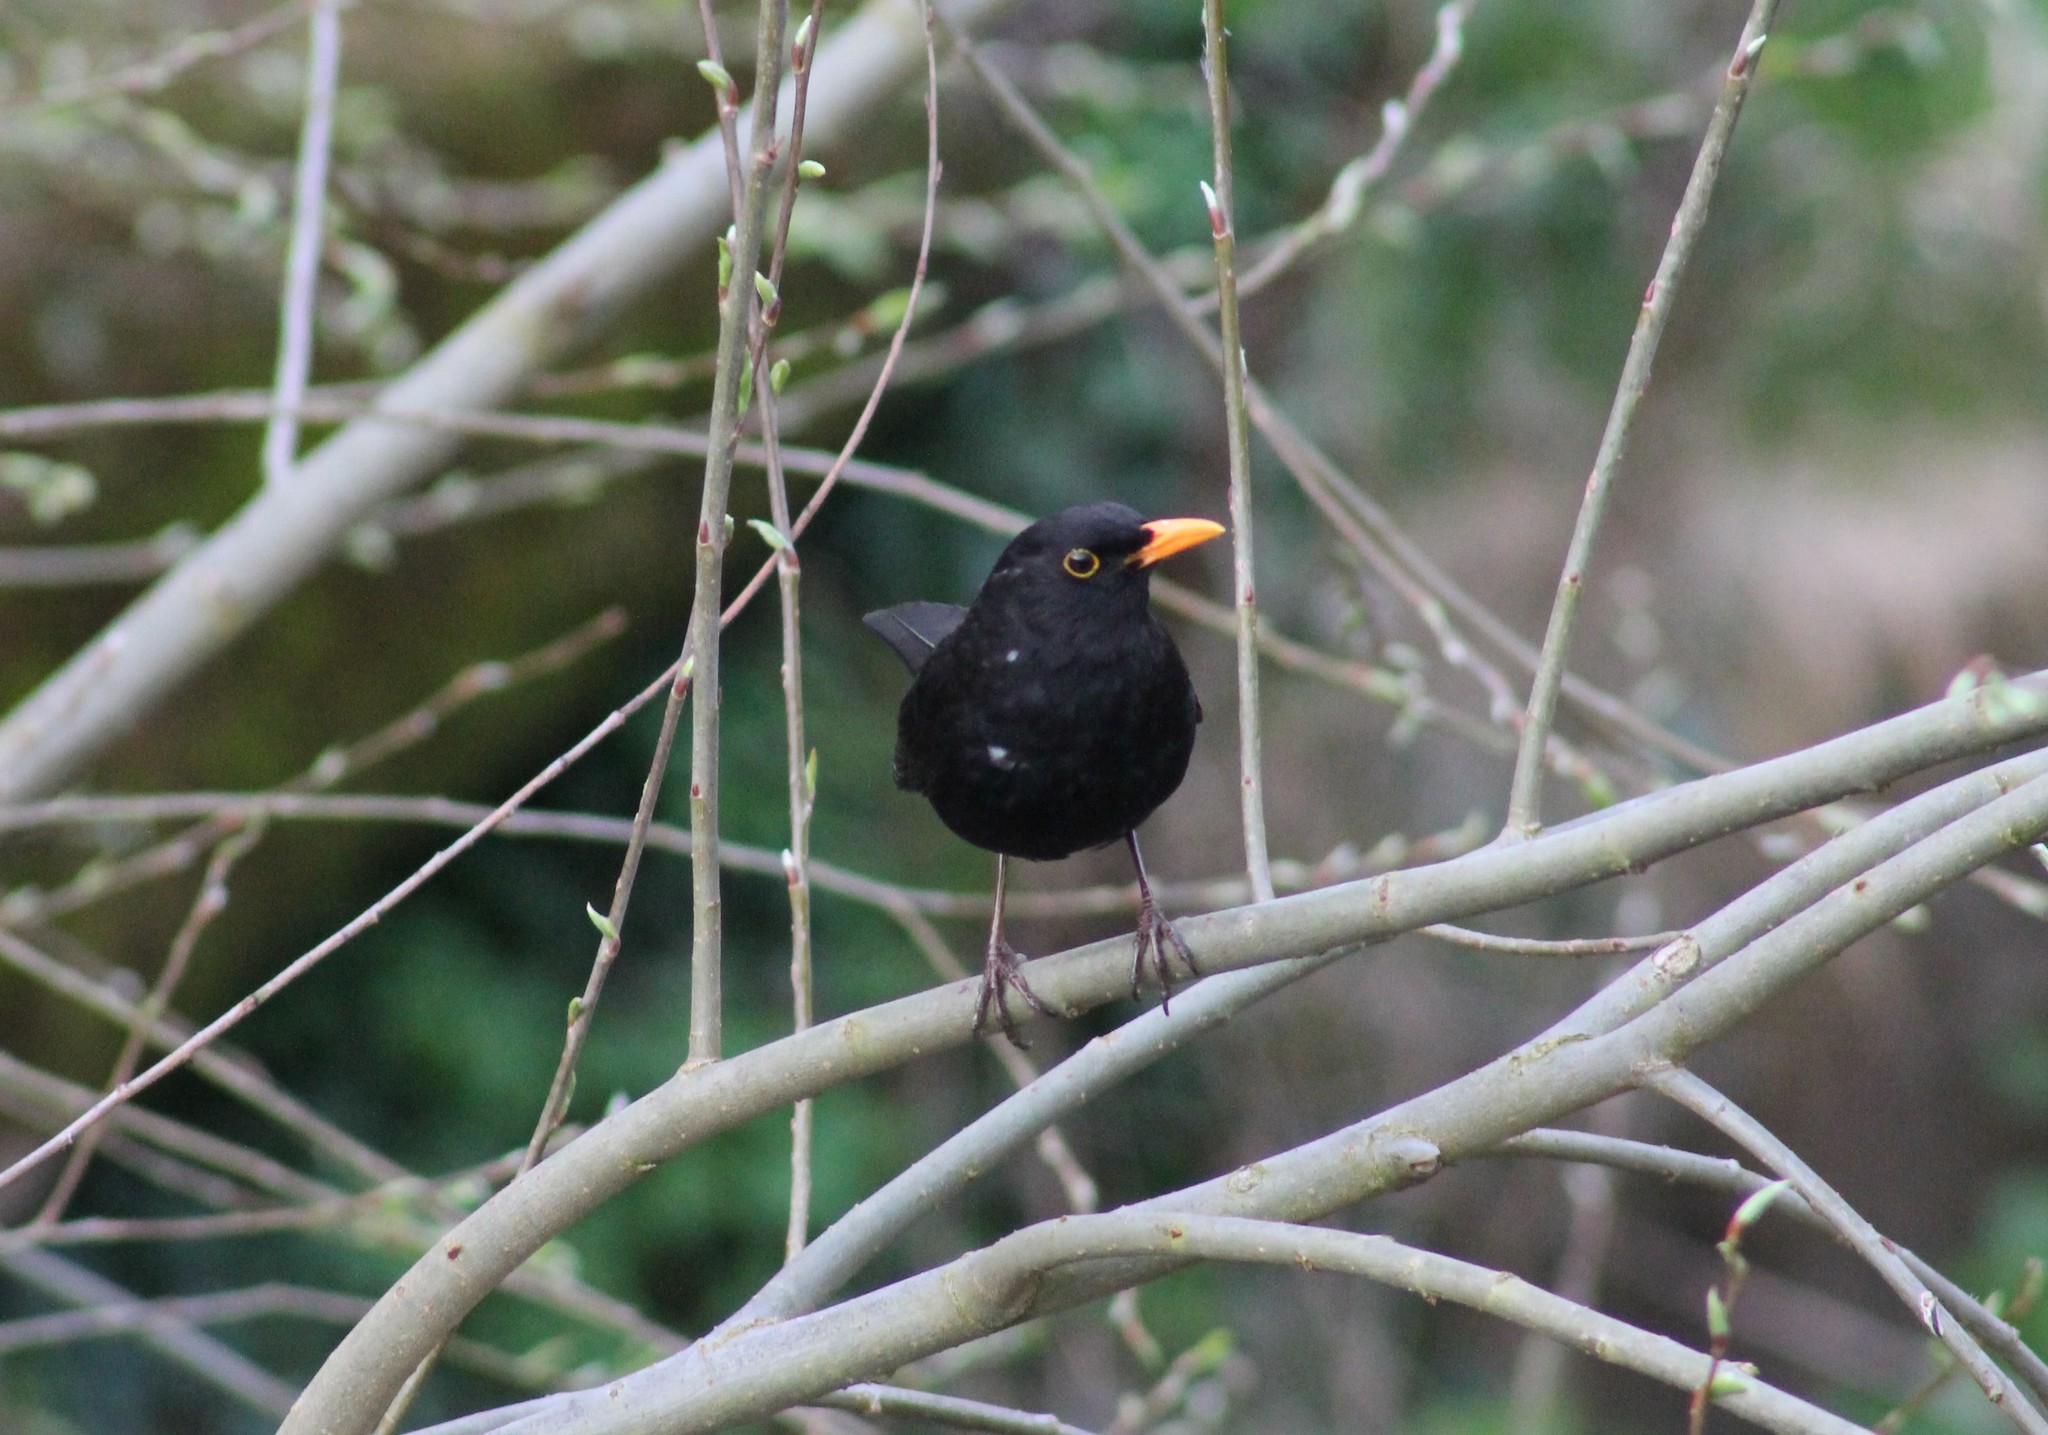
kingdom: Animalia
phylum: Chordata
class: Aves
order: Passeriformes
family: Turdidae
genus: Turdus
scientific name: Turdus merula
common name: Common blackbird
